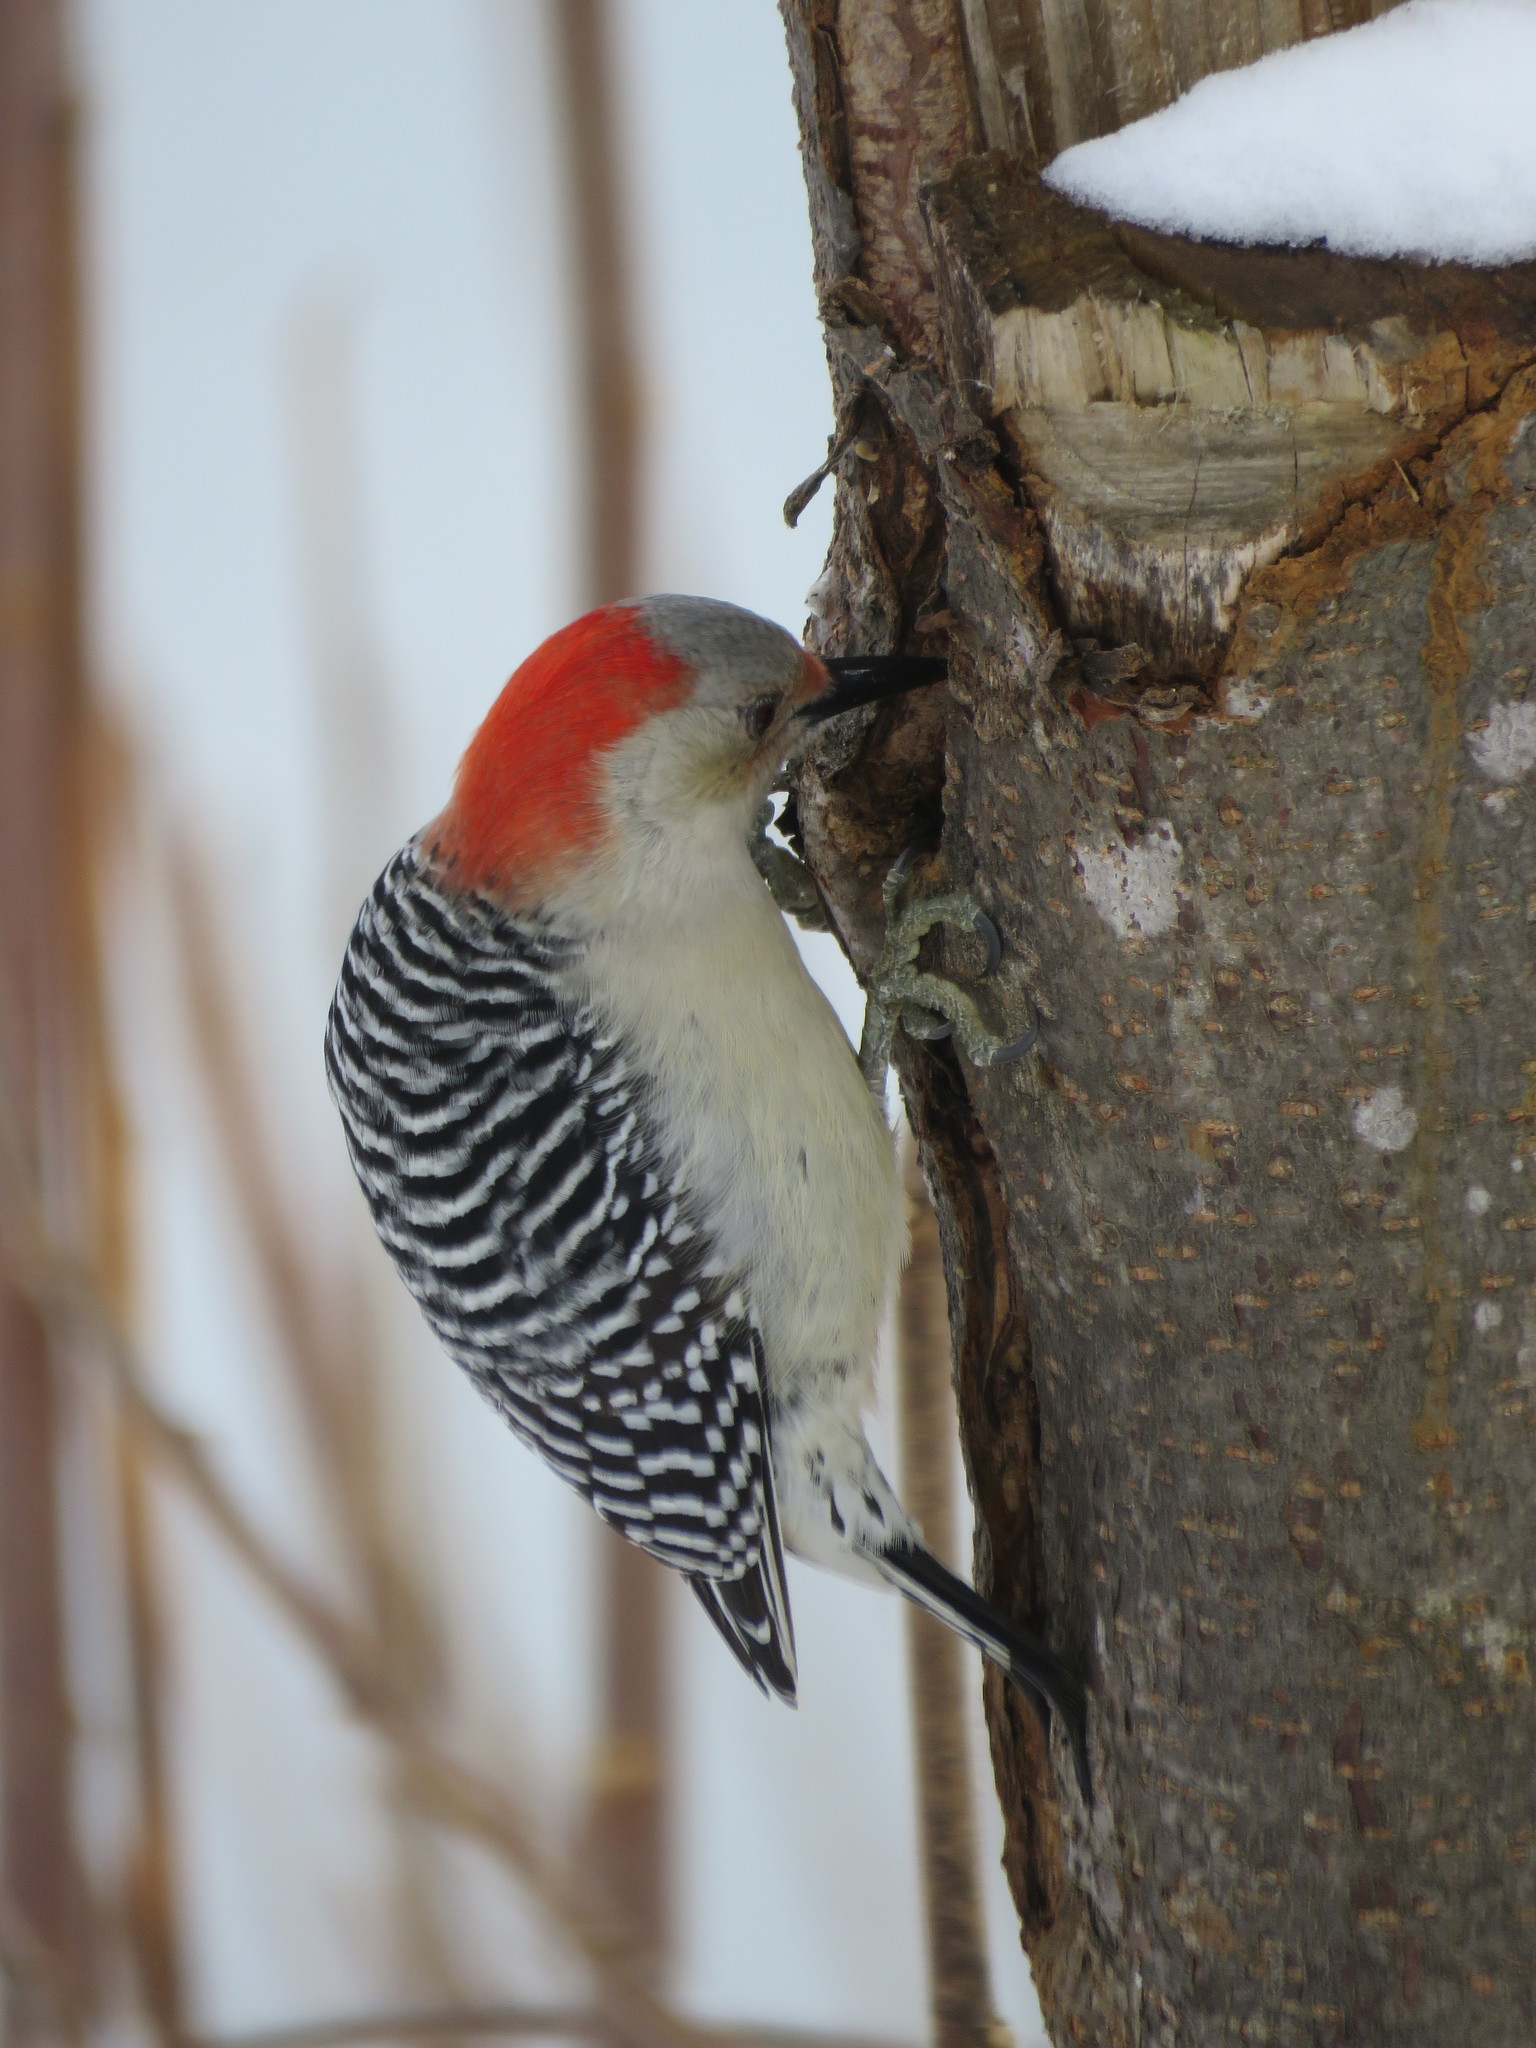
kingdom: Animalia
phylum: Chordata
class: Aves
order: Piciformes
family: Picidae
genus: Melanerpes
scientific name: Melanerpes carolinus
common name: Red-bellied woodpecker
